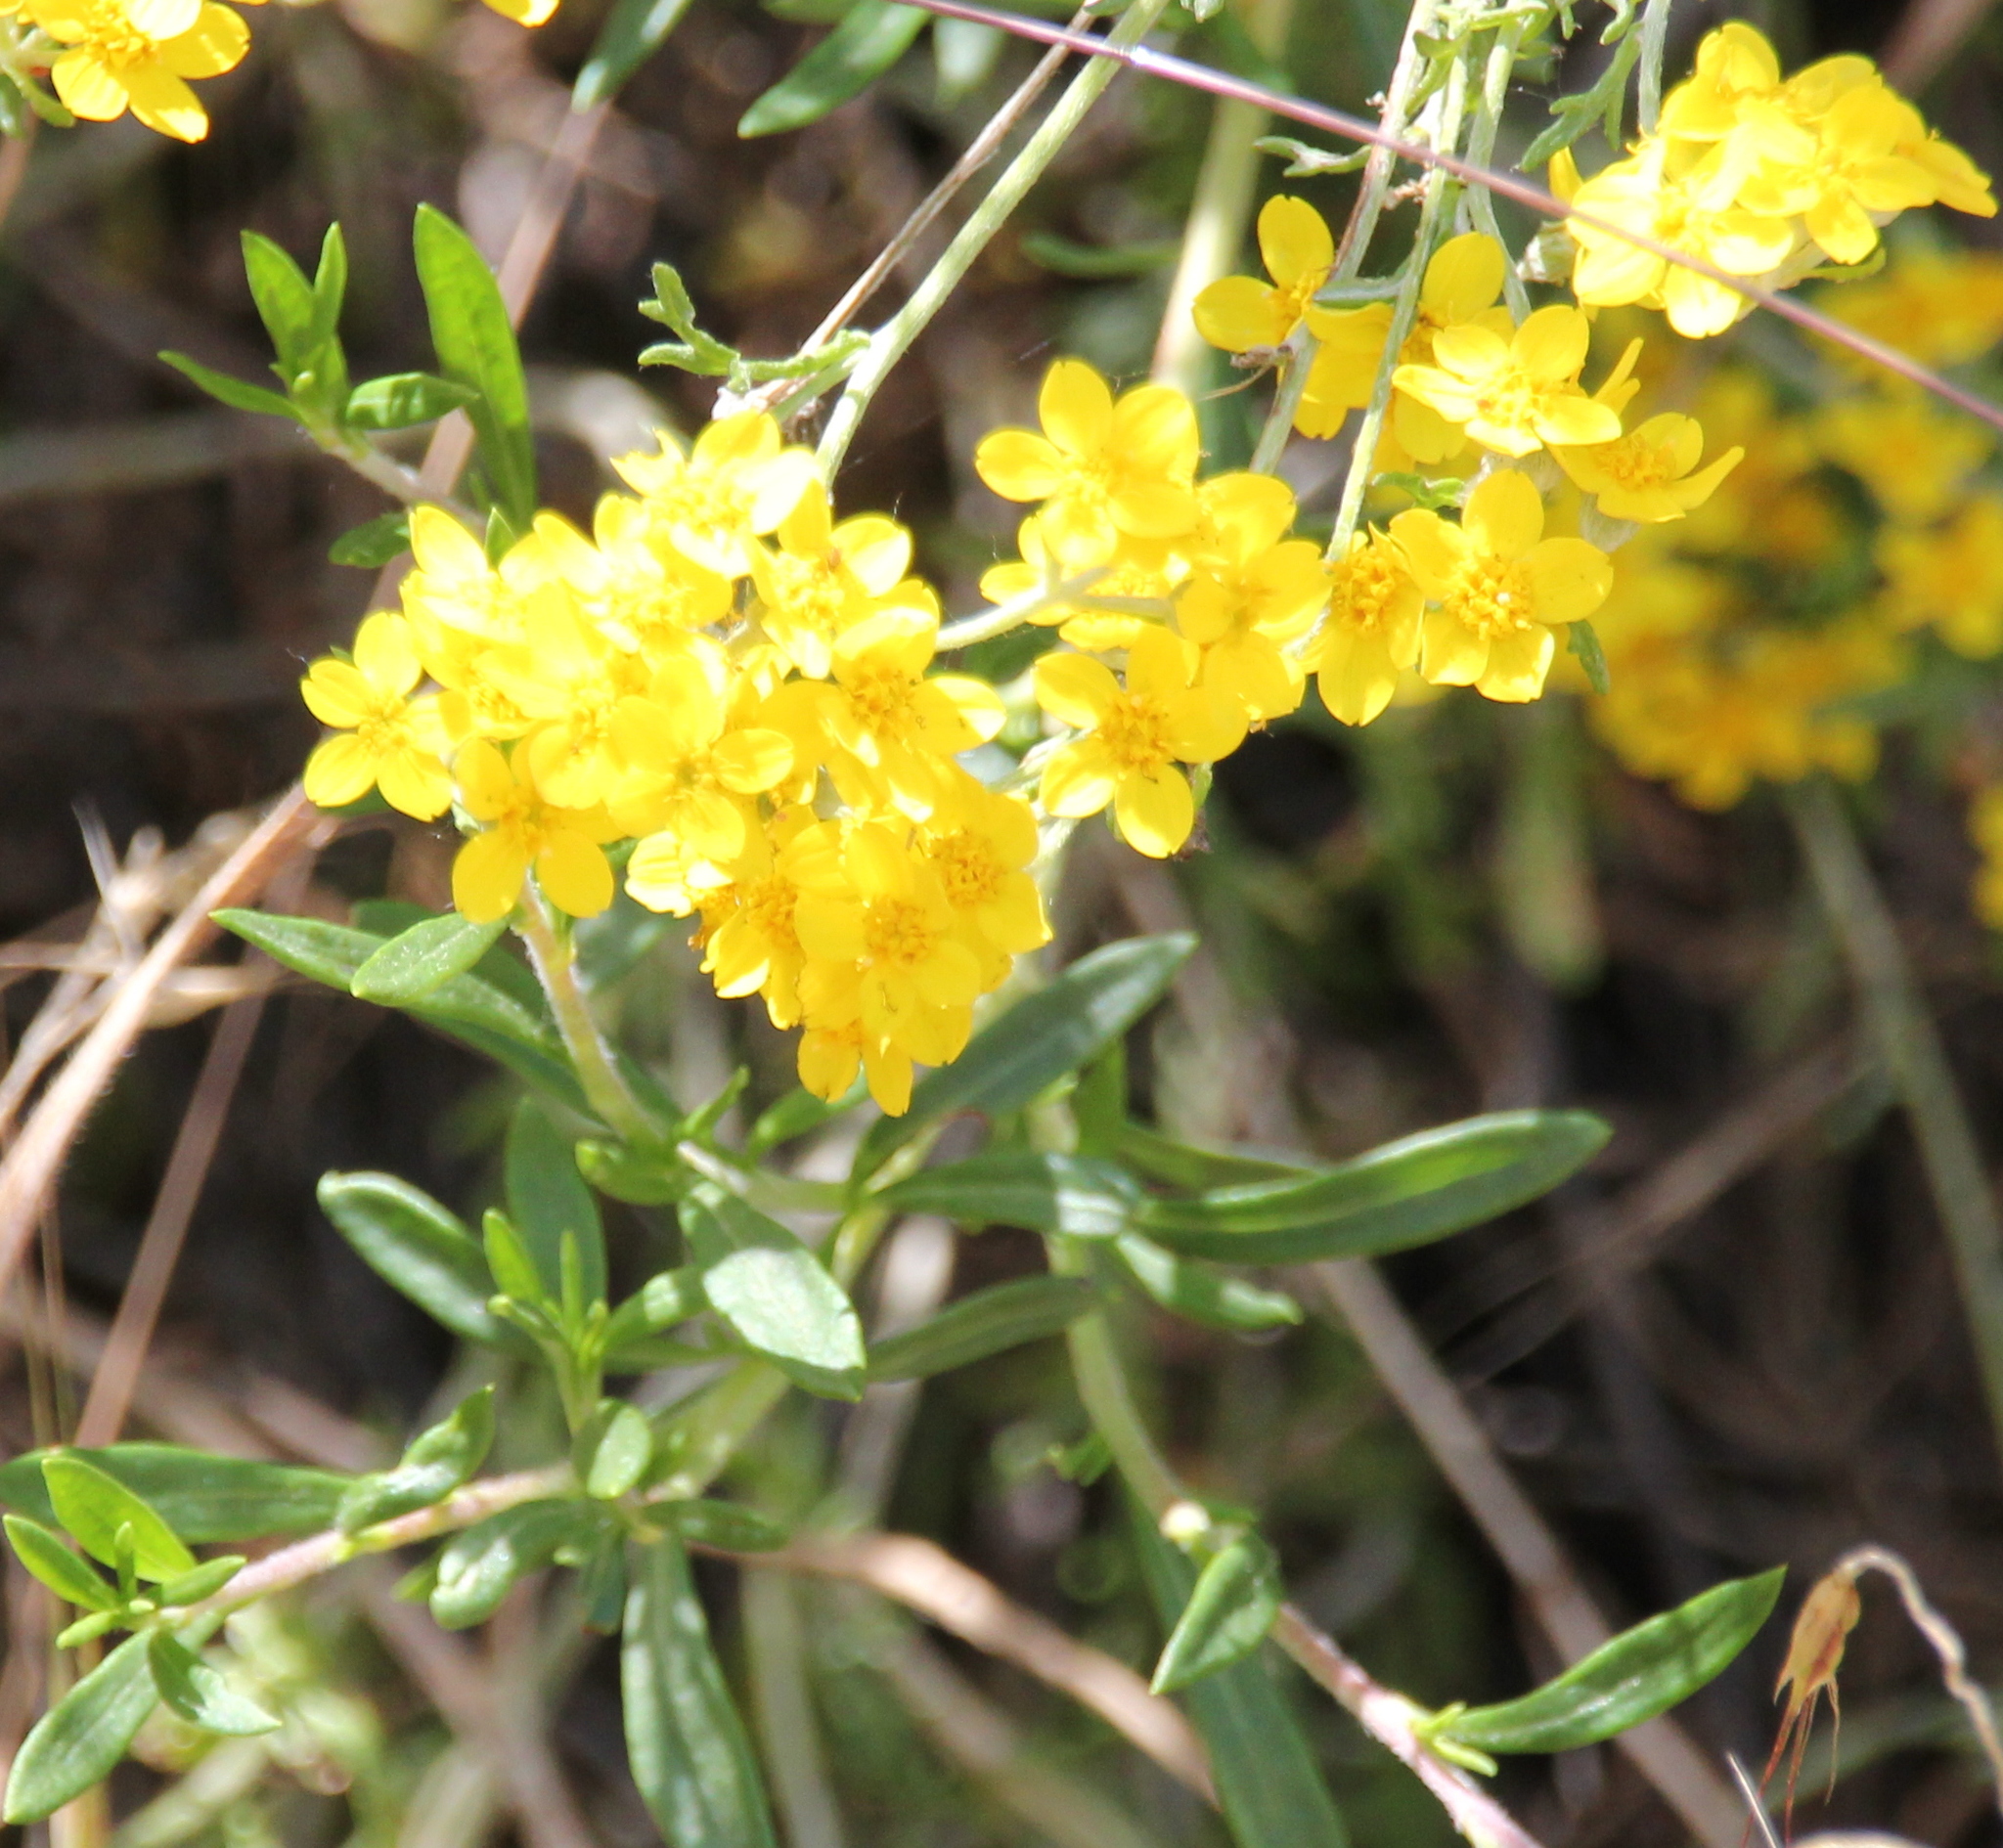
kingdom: Plantae
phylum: Tracheophyta
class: Magnoliopsida
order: Asterales
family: Asteraceae
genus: Eriophyllum
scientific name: Eriophyllum confertiflorum
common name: Golden-yarrow
